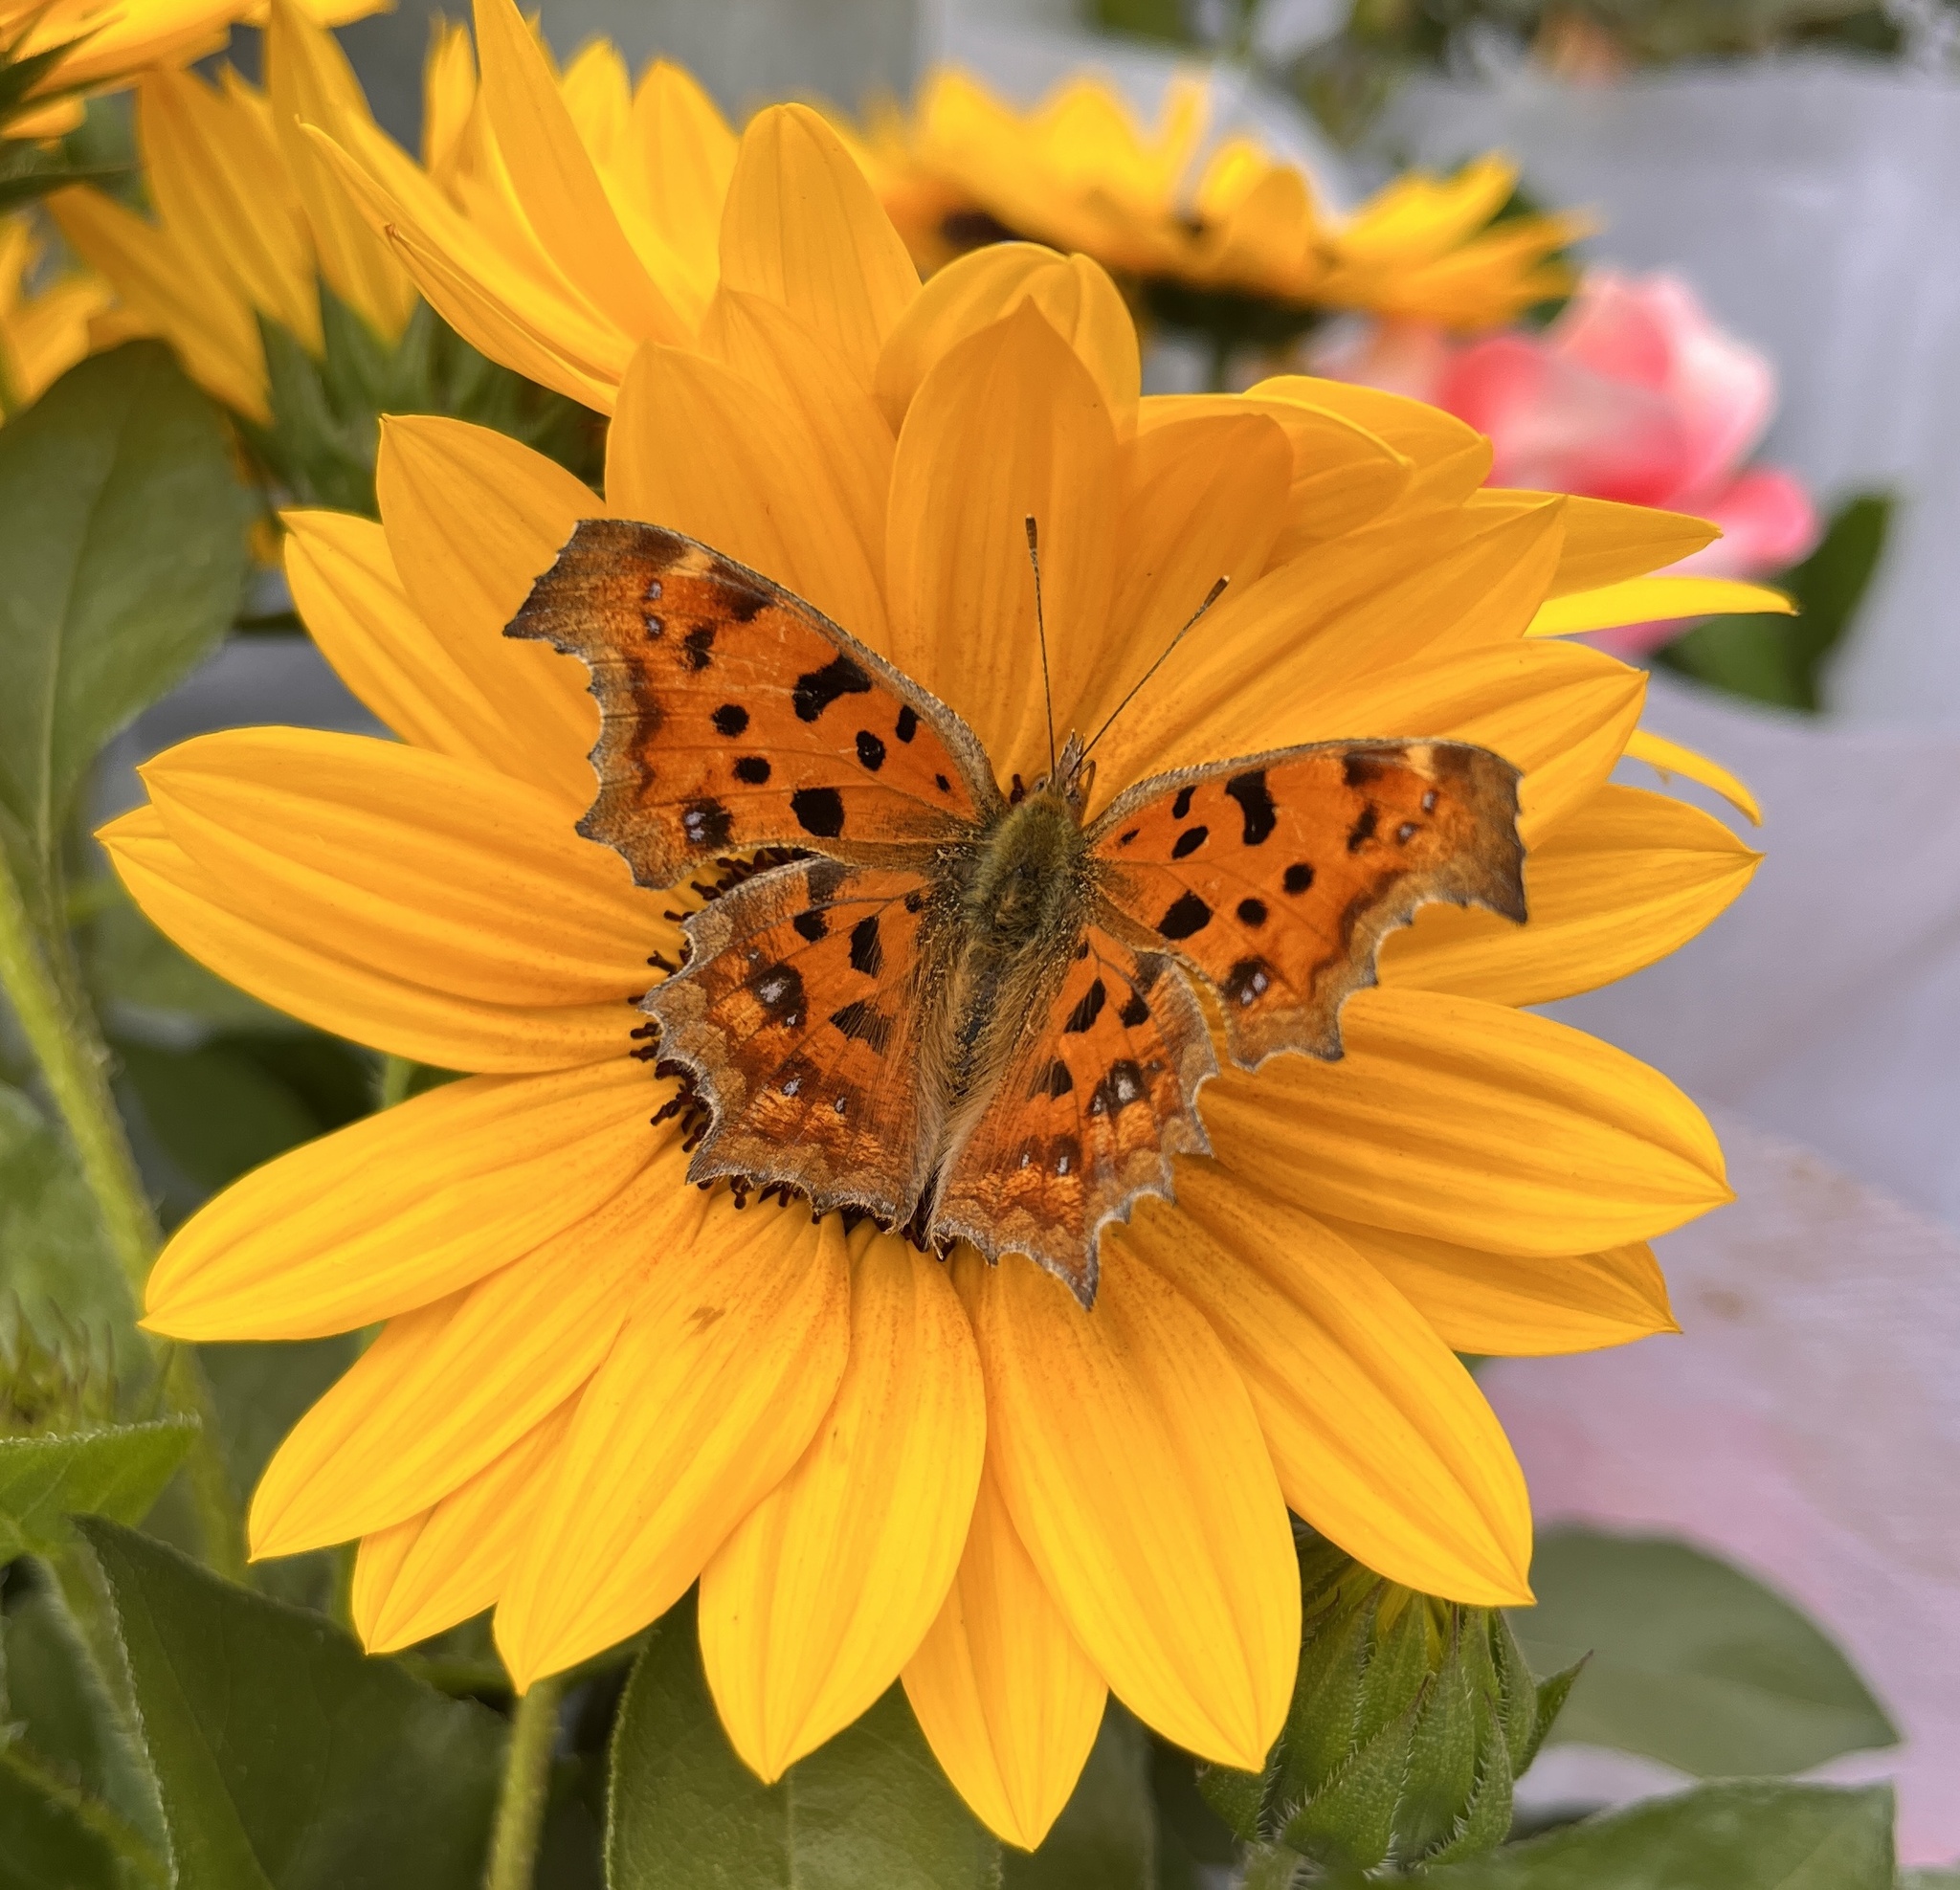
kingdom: Animalia
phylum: Arthropoda
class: Insecta
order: Lepidoptera
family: Nymphalidae
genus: Polygonia
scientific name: Polygonia c-aureum
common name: Asian comma
